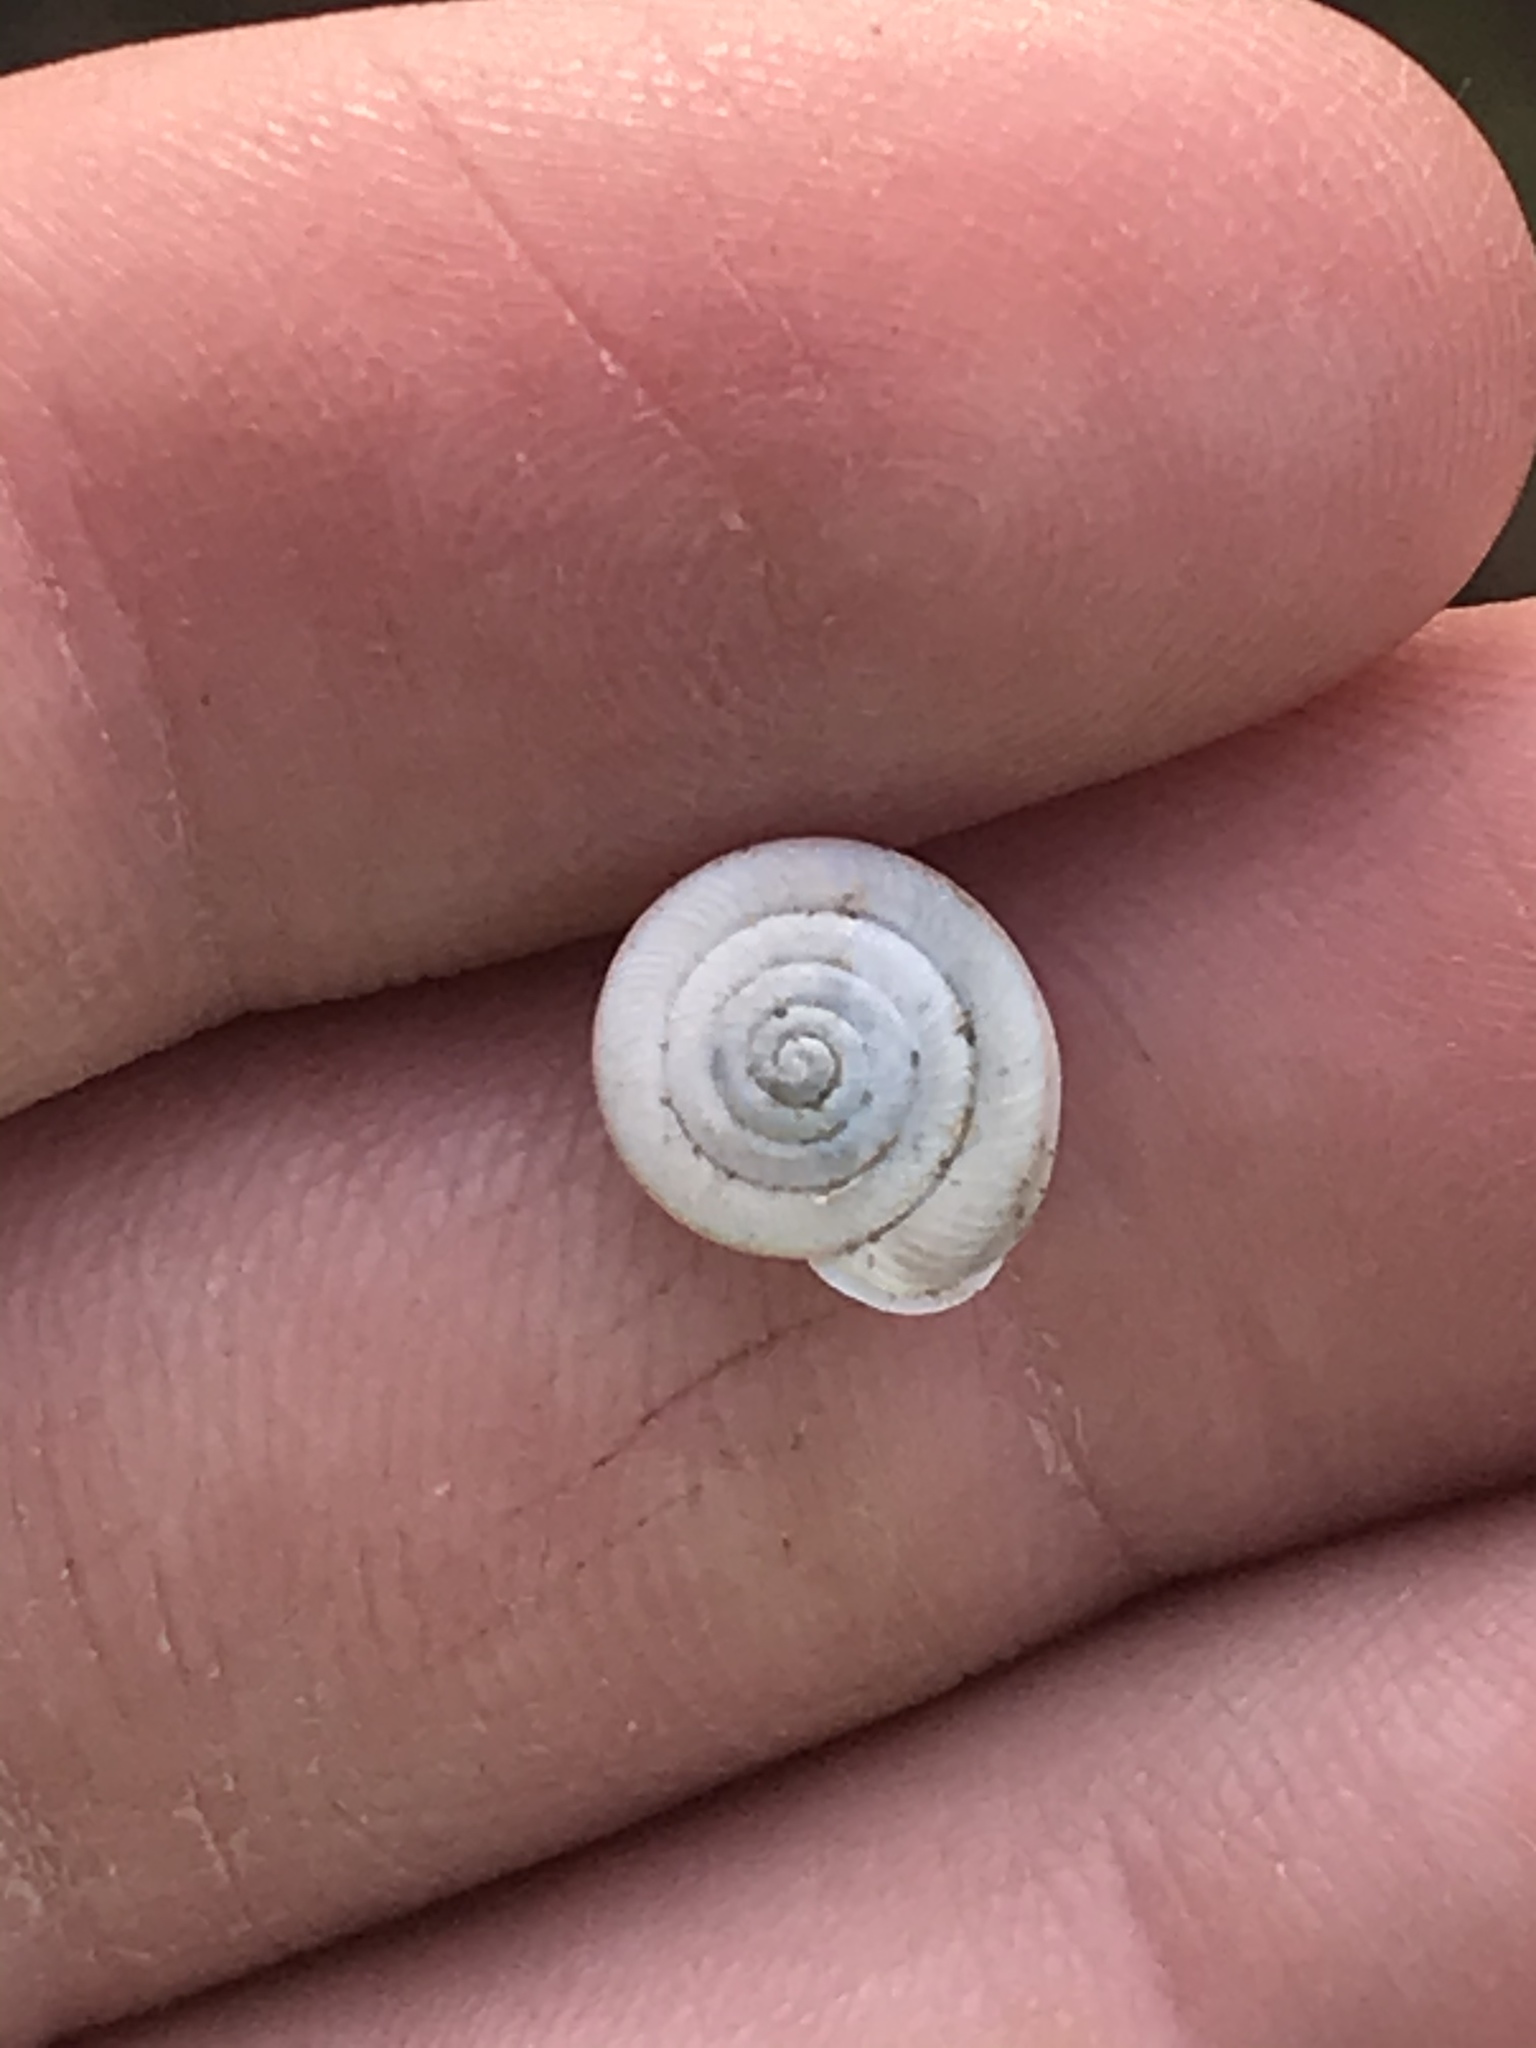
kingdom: Animalia
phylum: Mollusca
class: Gastropoda
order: Stylommatophora
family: Polygyridae
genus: Linisa
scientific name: Linisa texasiana
